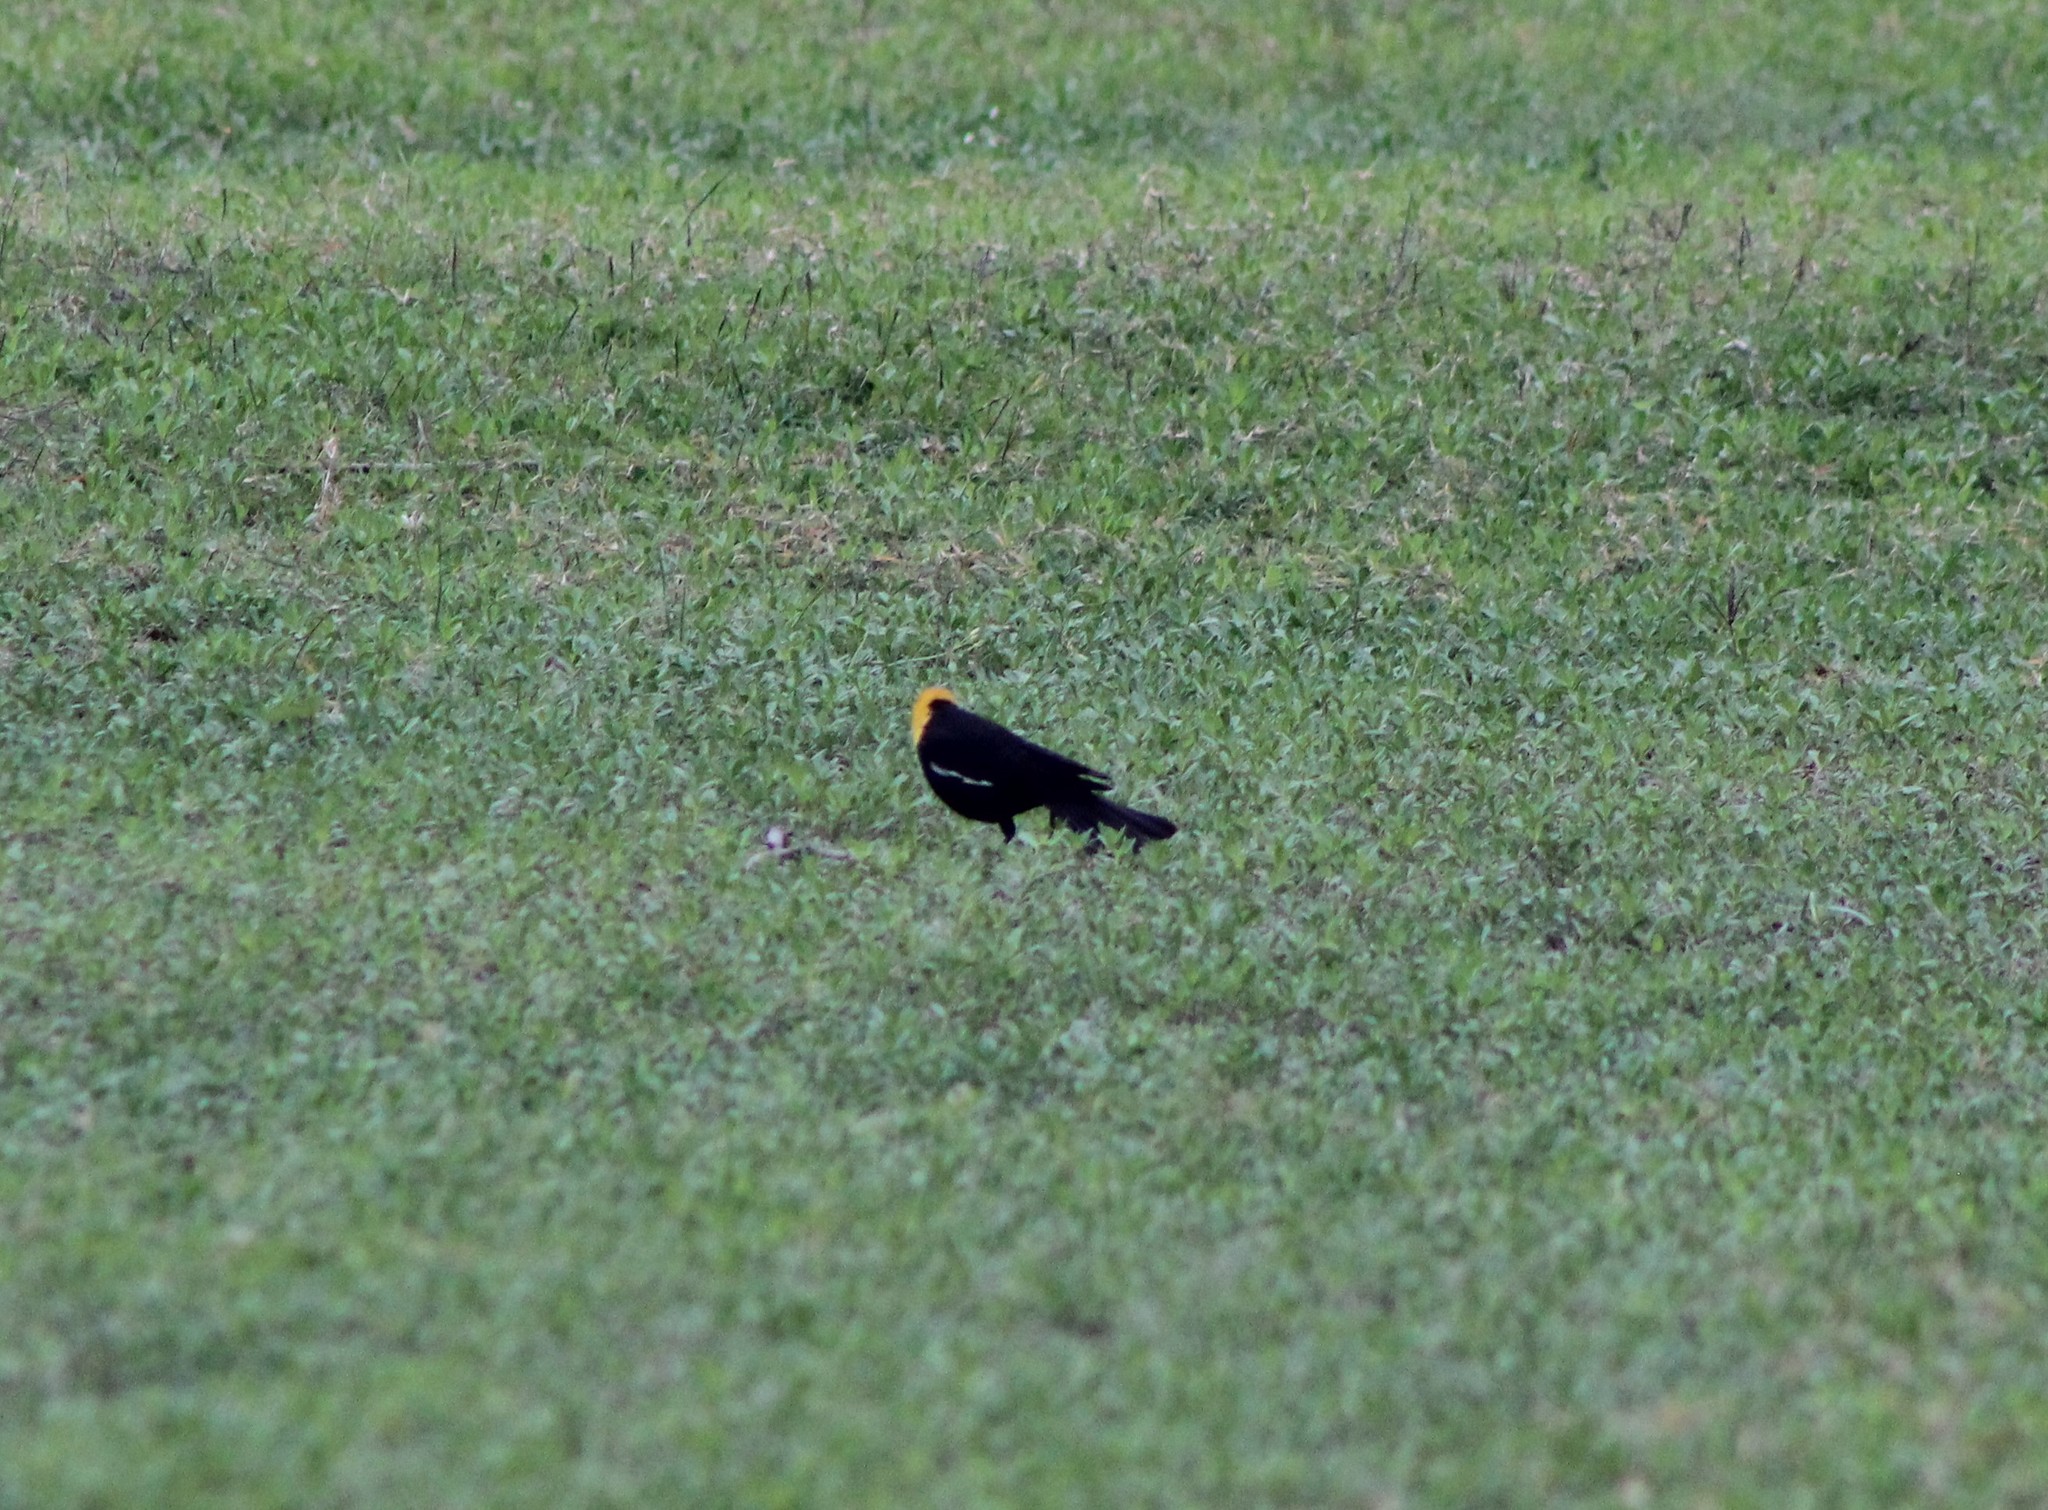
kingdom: Animalia
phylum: Chordata
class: Aves
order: Passeriformes
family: Icteridae
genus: Xanthocephalus
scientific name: Xanthocephalus xanthocephalus
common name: Yellow-headed blackbird
